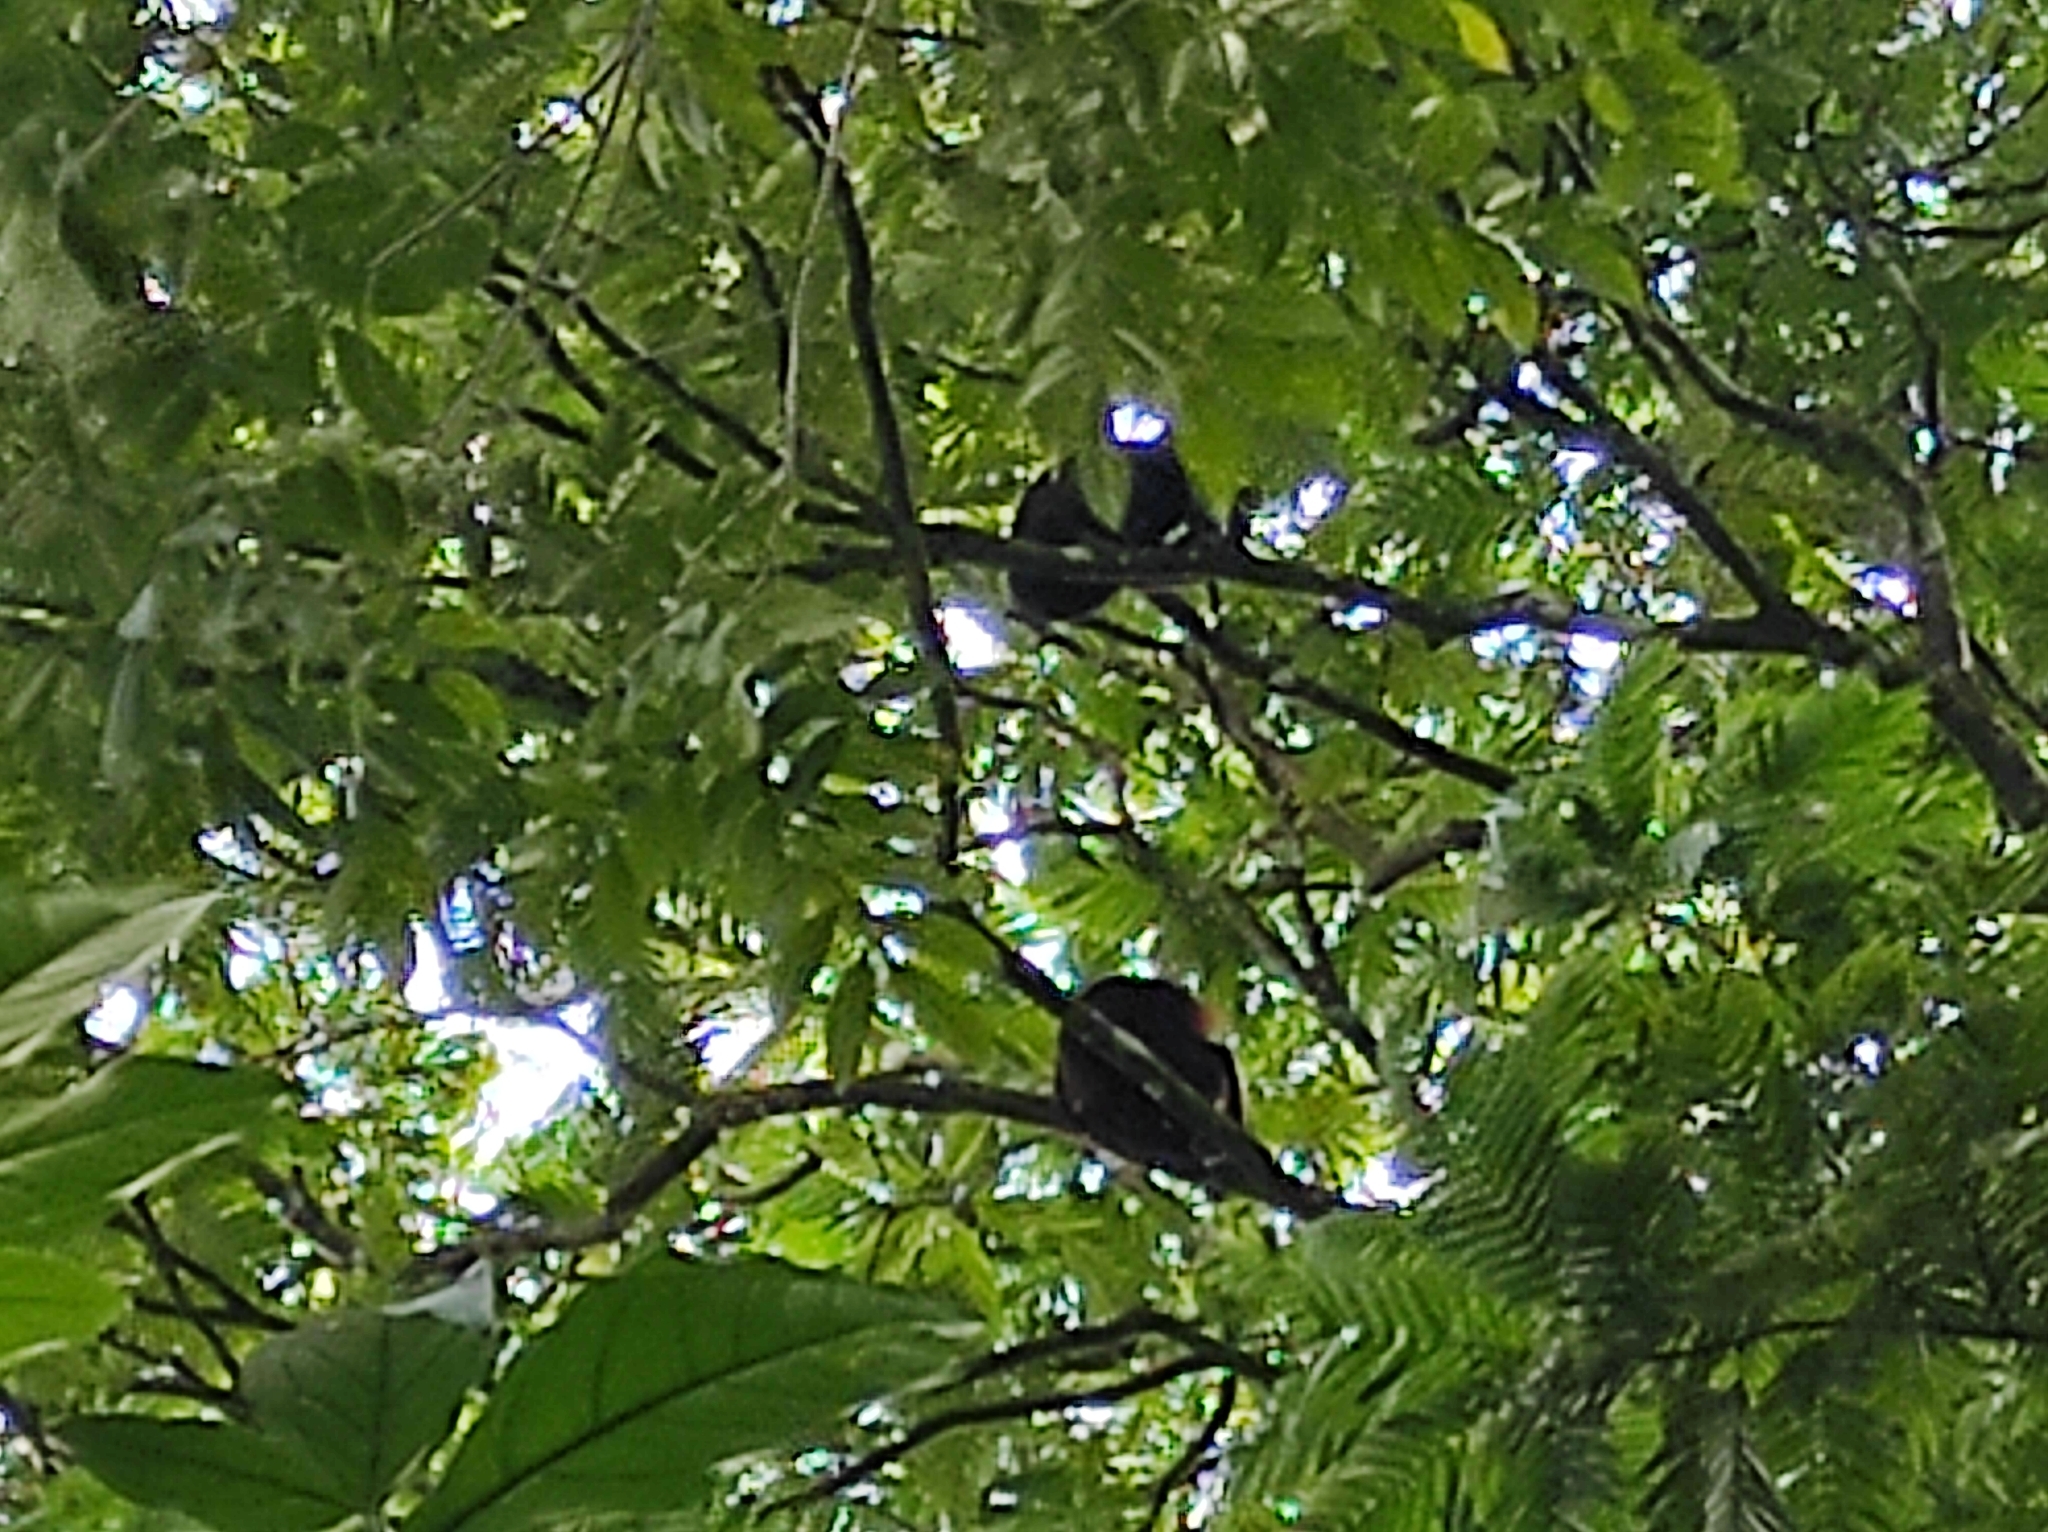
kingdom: Animalia
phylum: Chordata
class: Mammalia
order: Primates
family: Atelidae
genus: Alouatta
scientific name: Alouatta palliata
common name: Mantled howler
